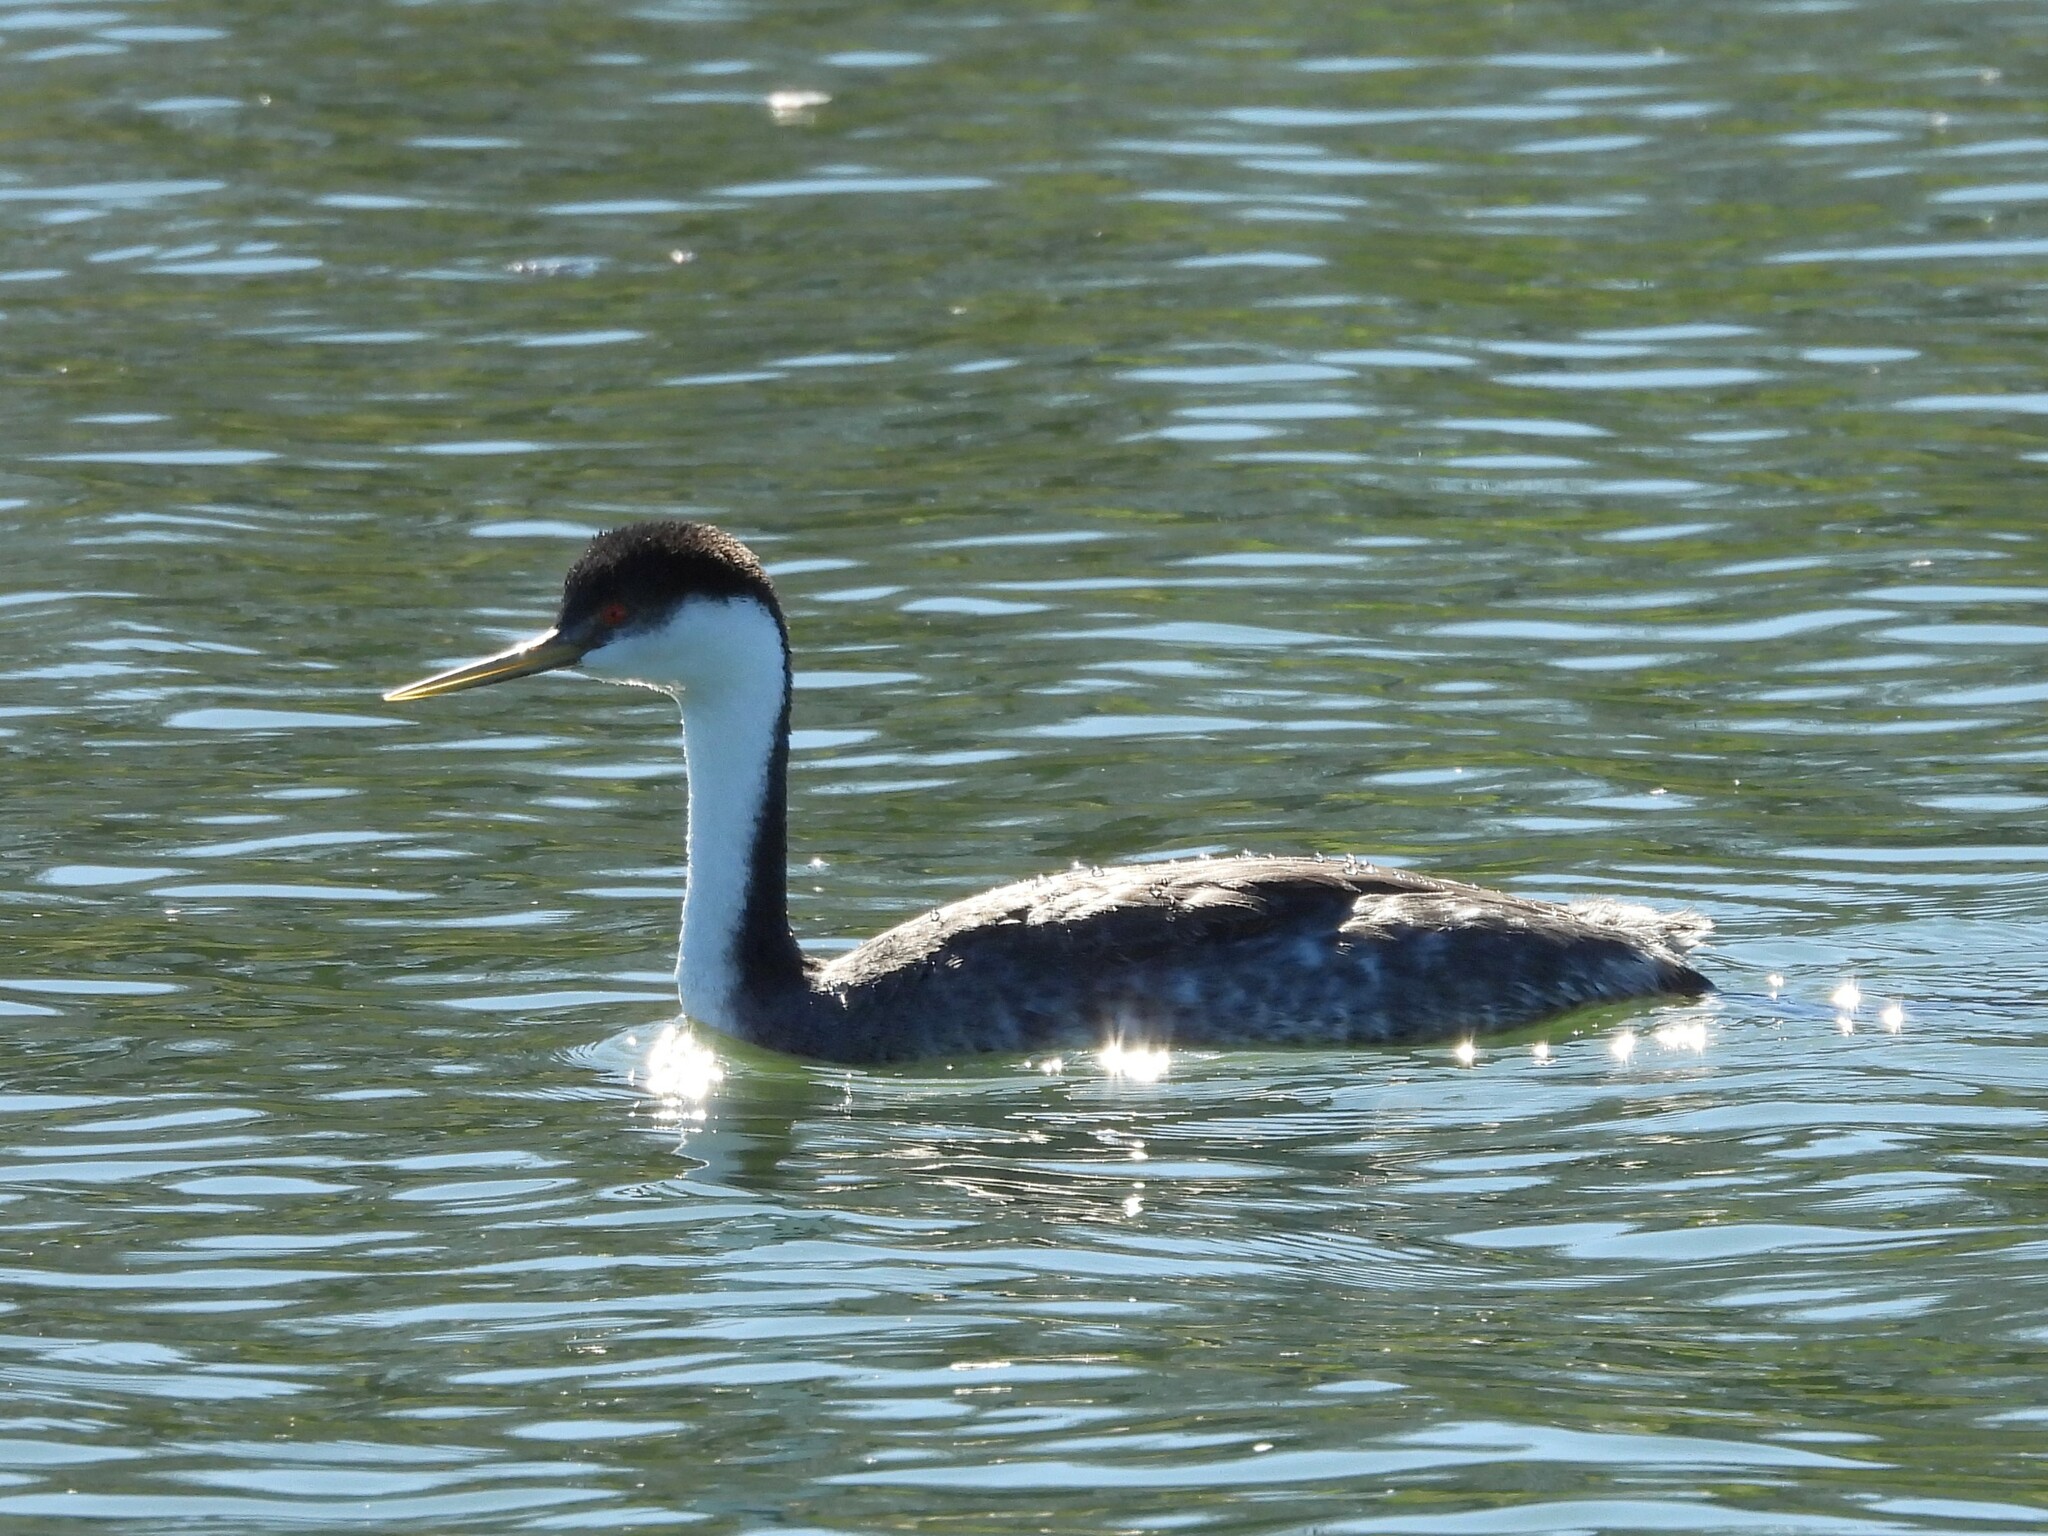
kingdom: Animalia
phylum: Chordata
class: Aves
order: Podicipediformes
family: Podicipedidae
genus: Aechmophorus
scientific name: Aechmophorus occidentalis
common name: Western grebe
